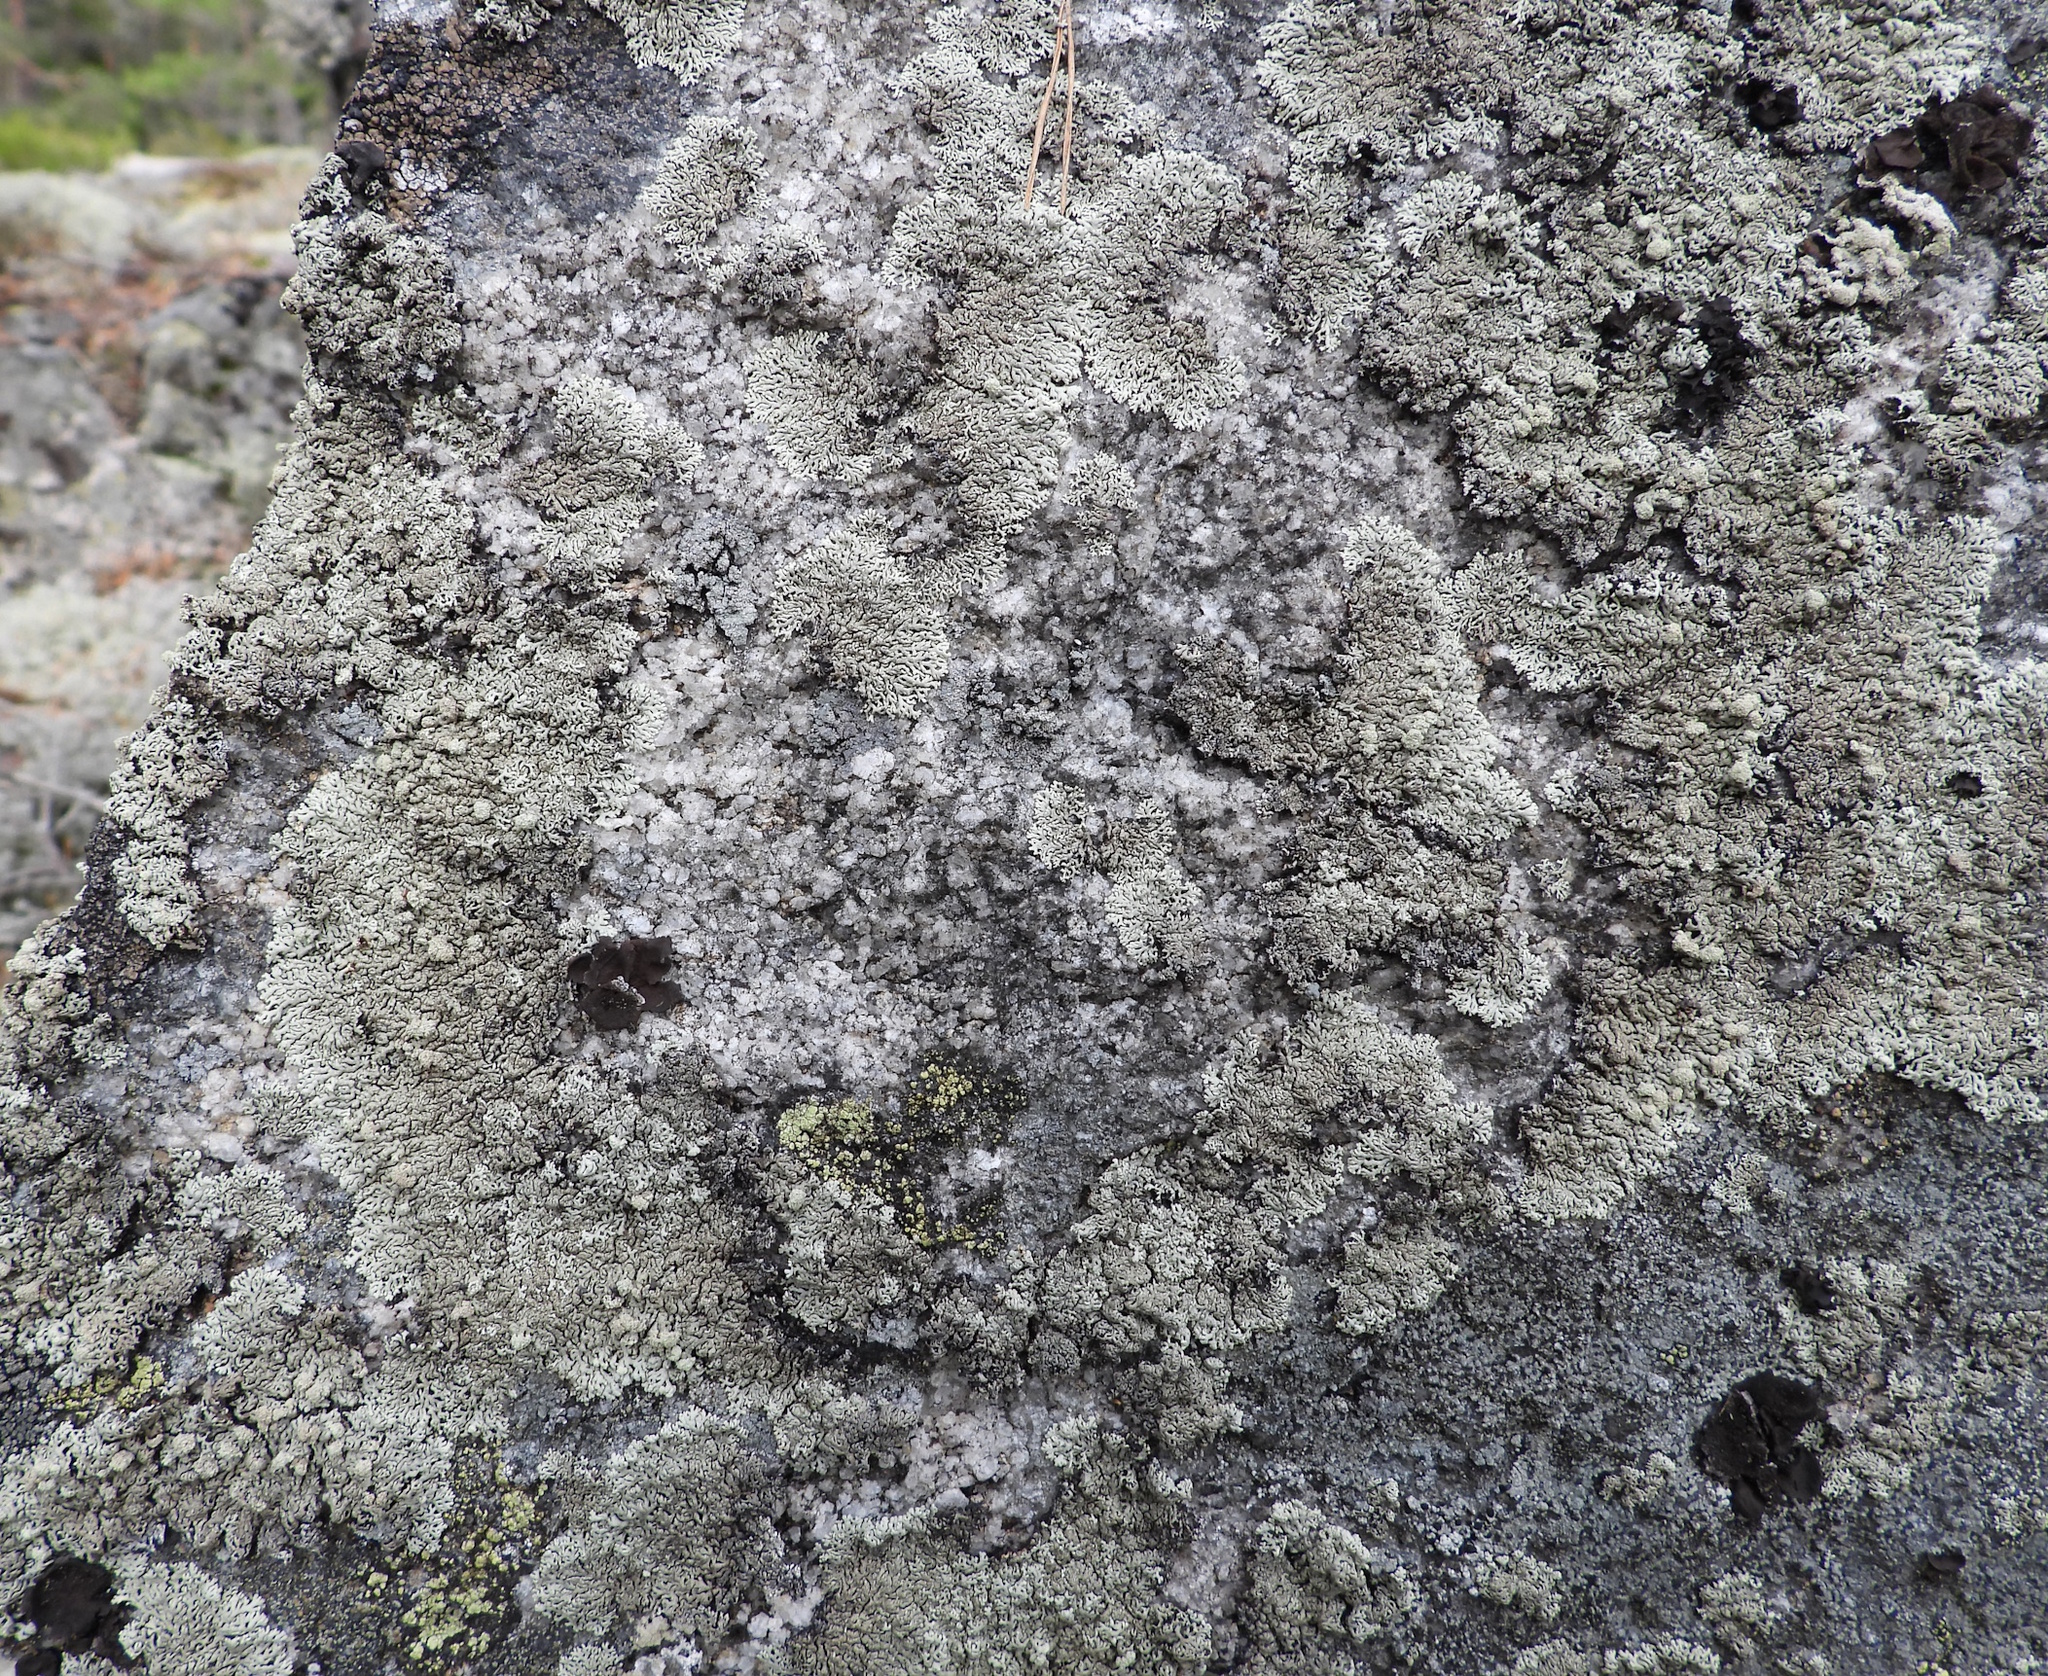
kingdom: Fungi
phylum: Ascomycota
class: Lecanoromycetes
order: Lecanorales
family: Parmeliaceae
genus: Arctoparmelia
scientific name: Arctoparmelia incurva
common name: Bent ring lichen
